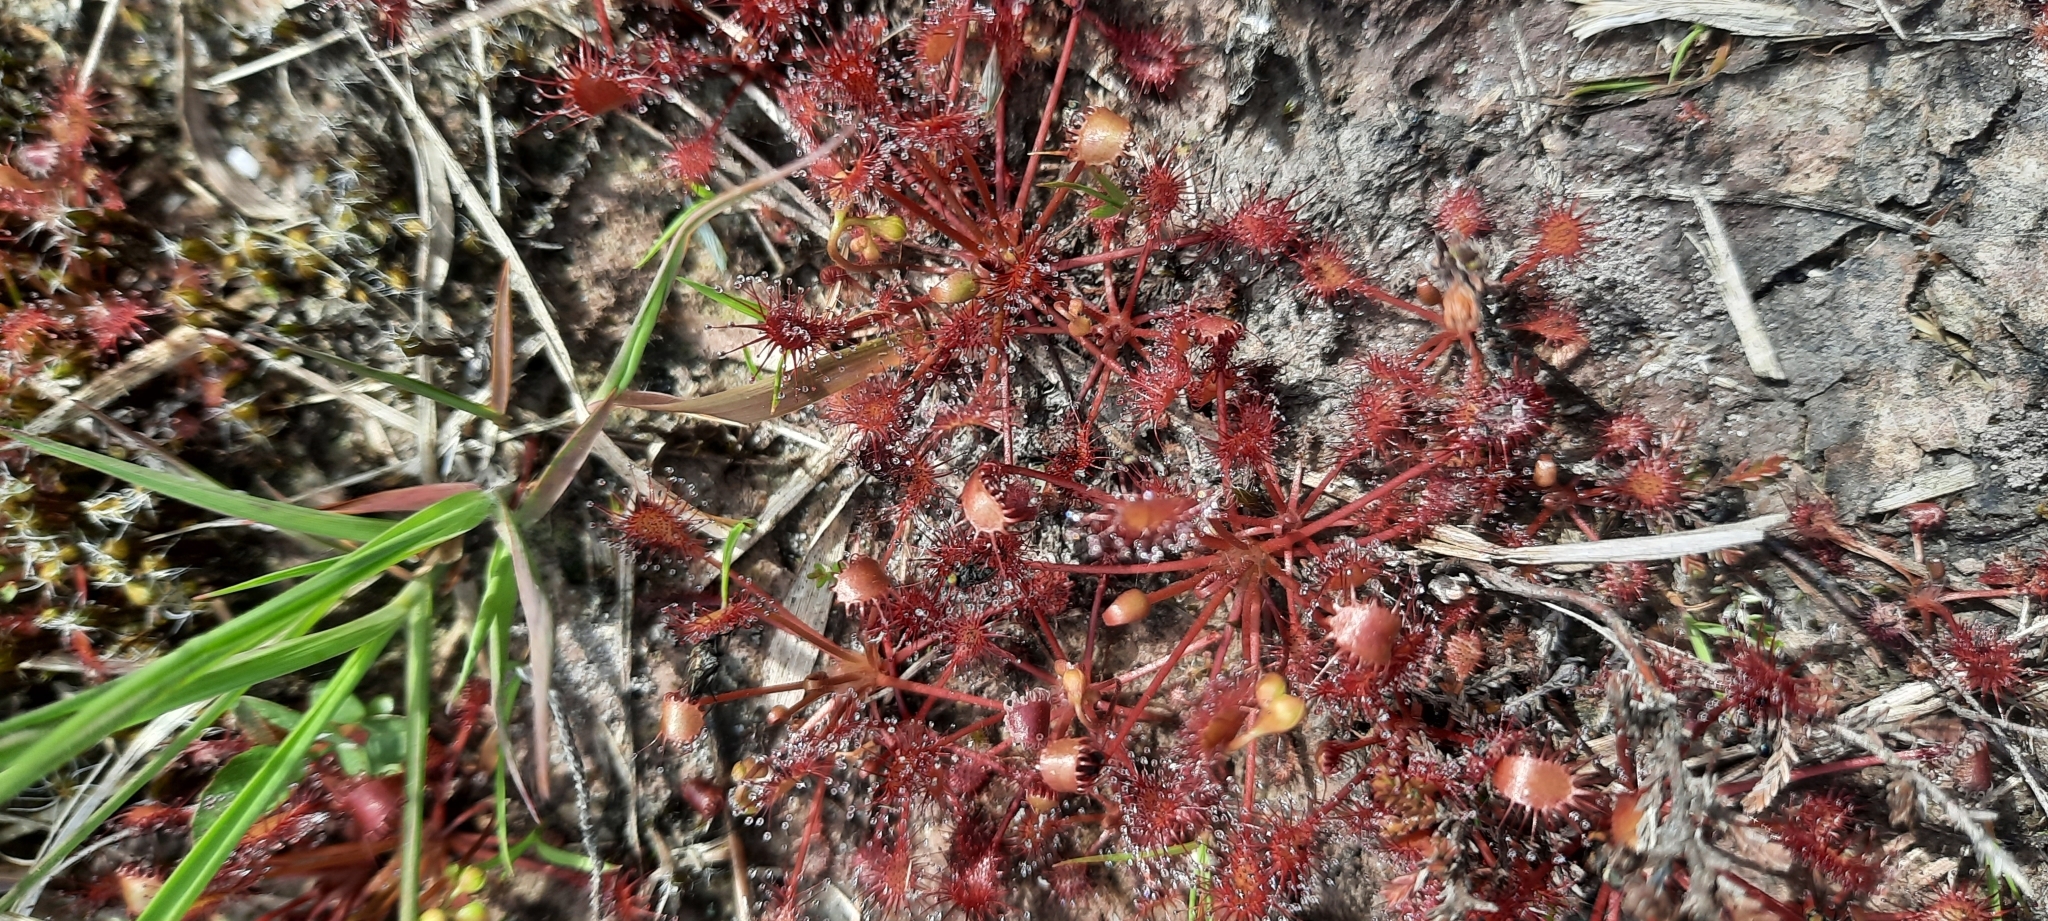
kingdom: Plantae
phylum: Tracheophyta
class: Magnoliopsida
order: Caryophyllales
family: Droseraceae
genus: Drosera
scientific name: Drosera intermedia
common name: Oblong-leaved sundew
